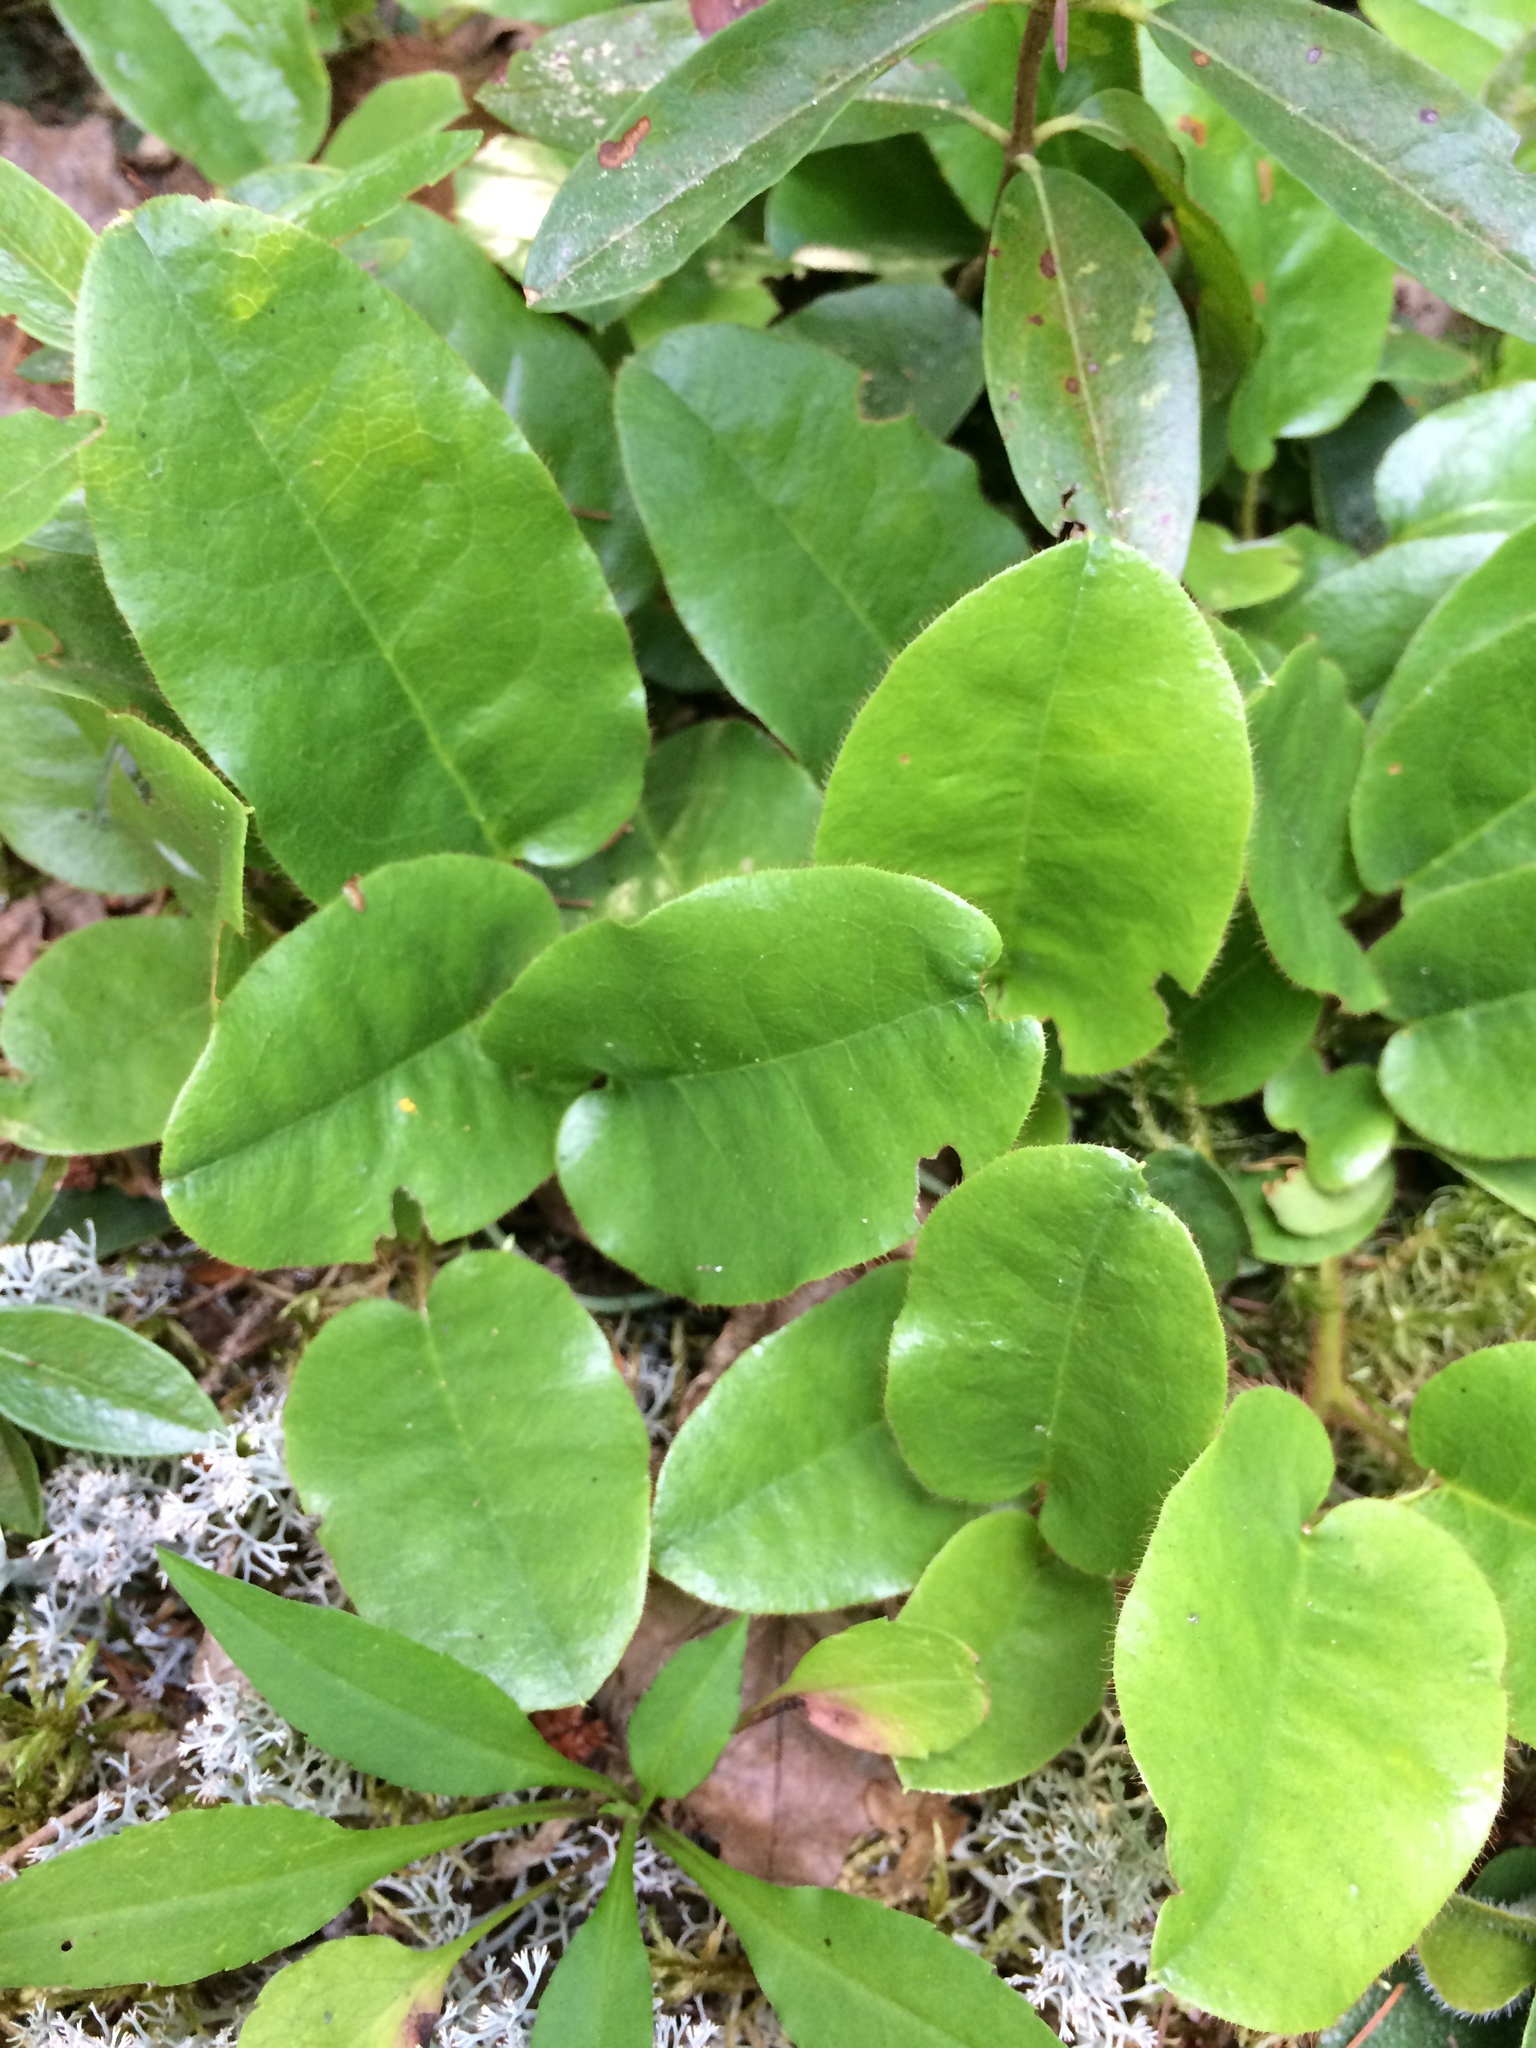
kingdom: Plantae
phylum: Tracheophyta
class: Magnoliopsida
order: Ericales
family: Ericaceae
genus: Epigaea
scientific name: Epigaea repens
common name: Gravelroot
